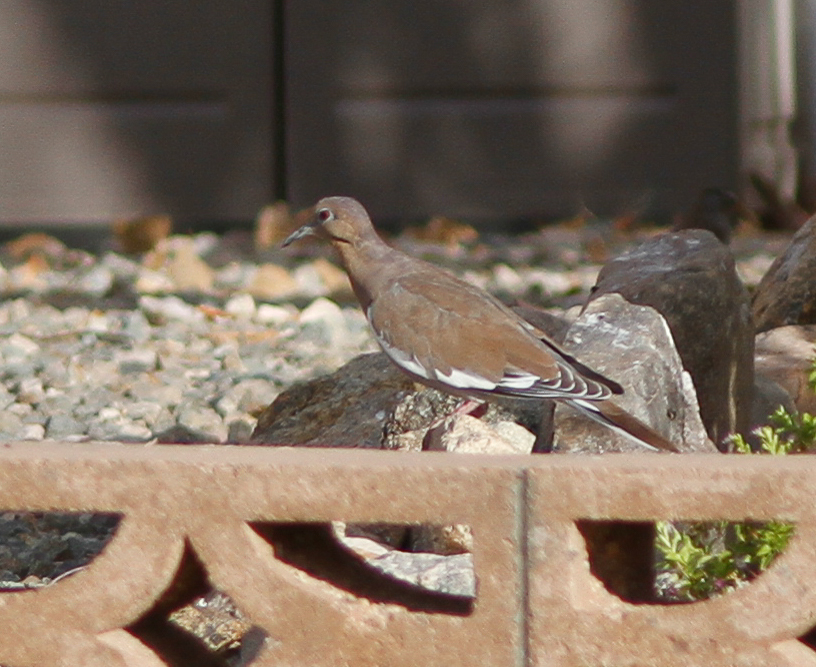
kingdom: Animalia
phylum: Chordata
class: Aves
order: Columbiformes
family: Columbidae
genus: Zenaida
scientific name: Zenaida asiatica
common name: White-winged dove
